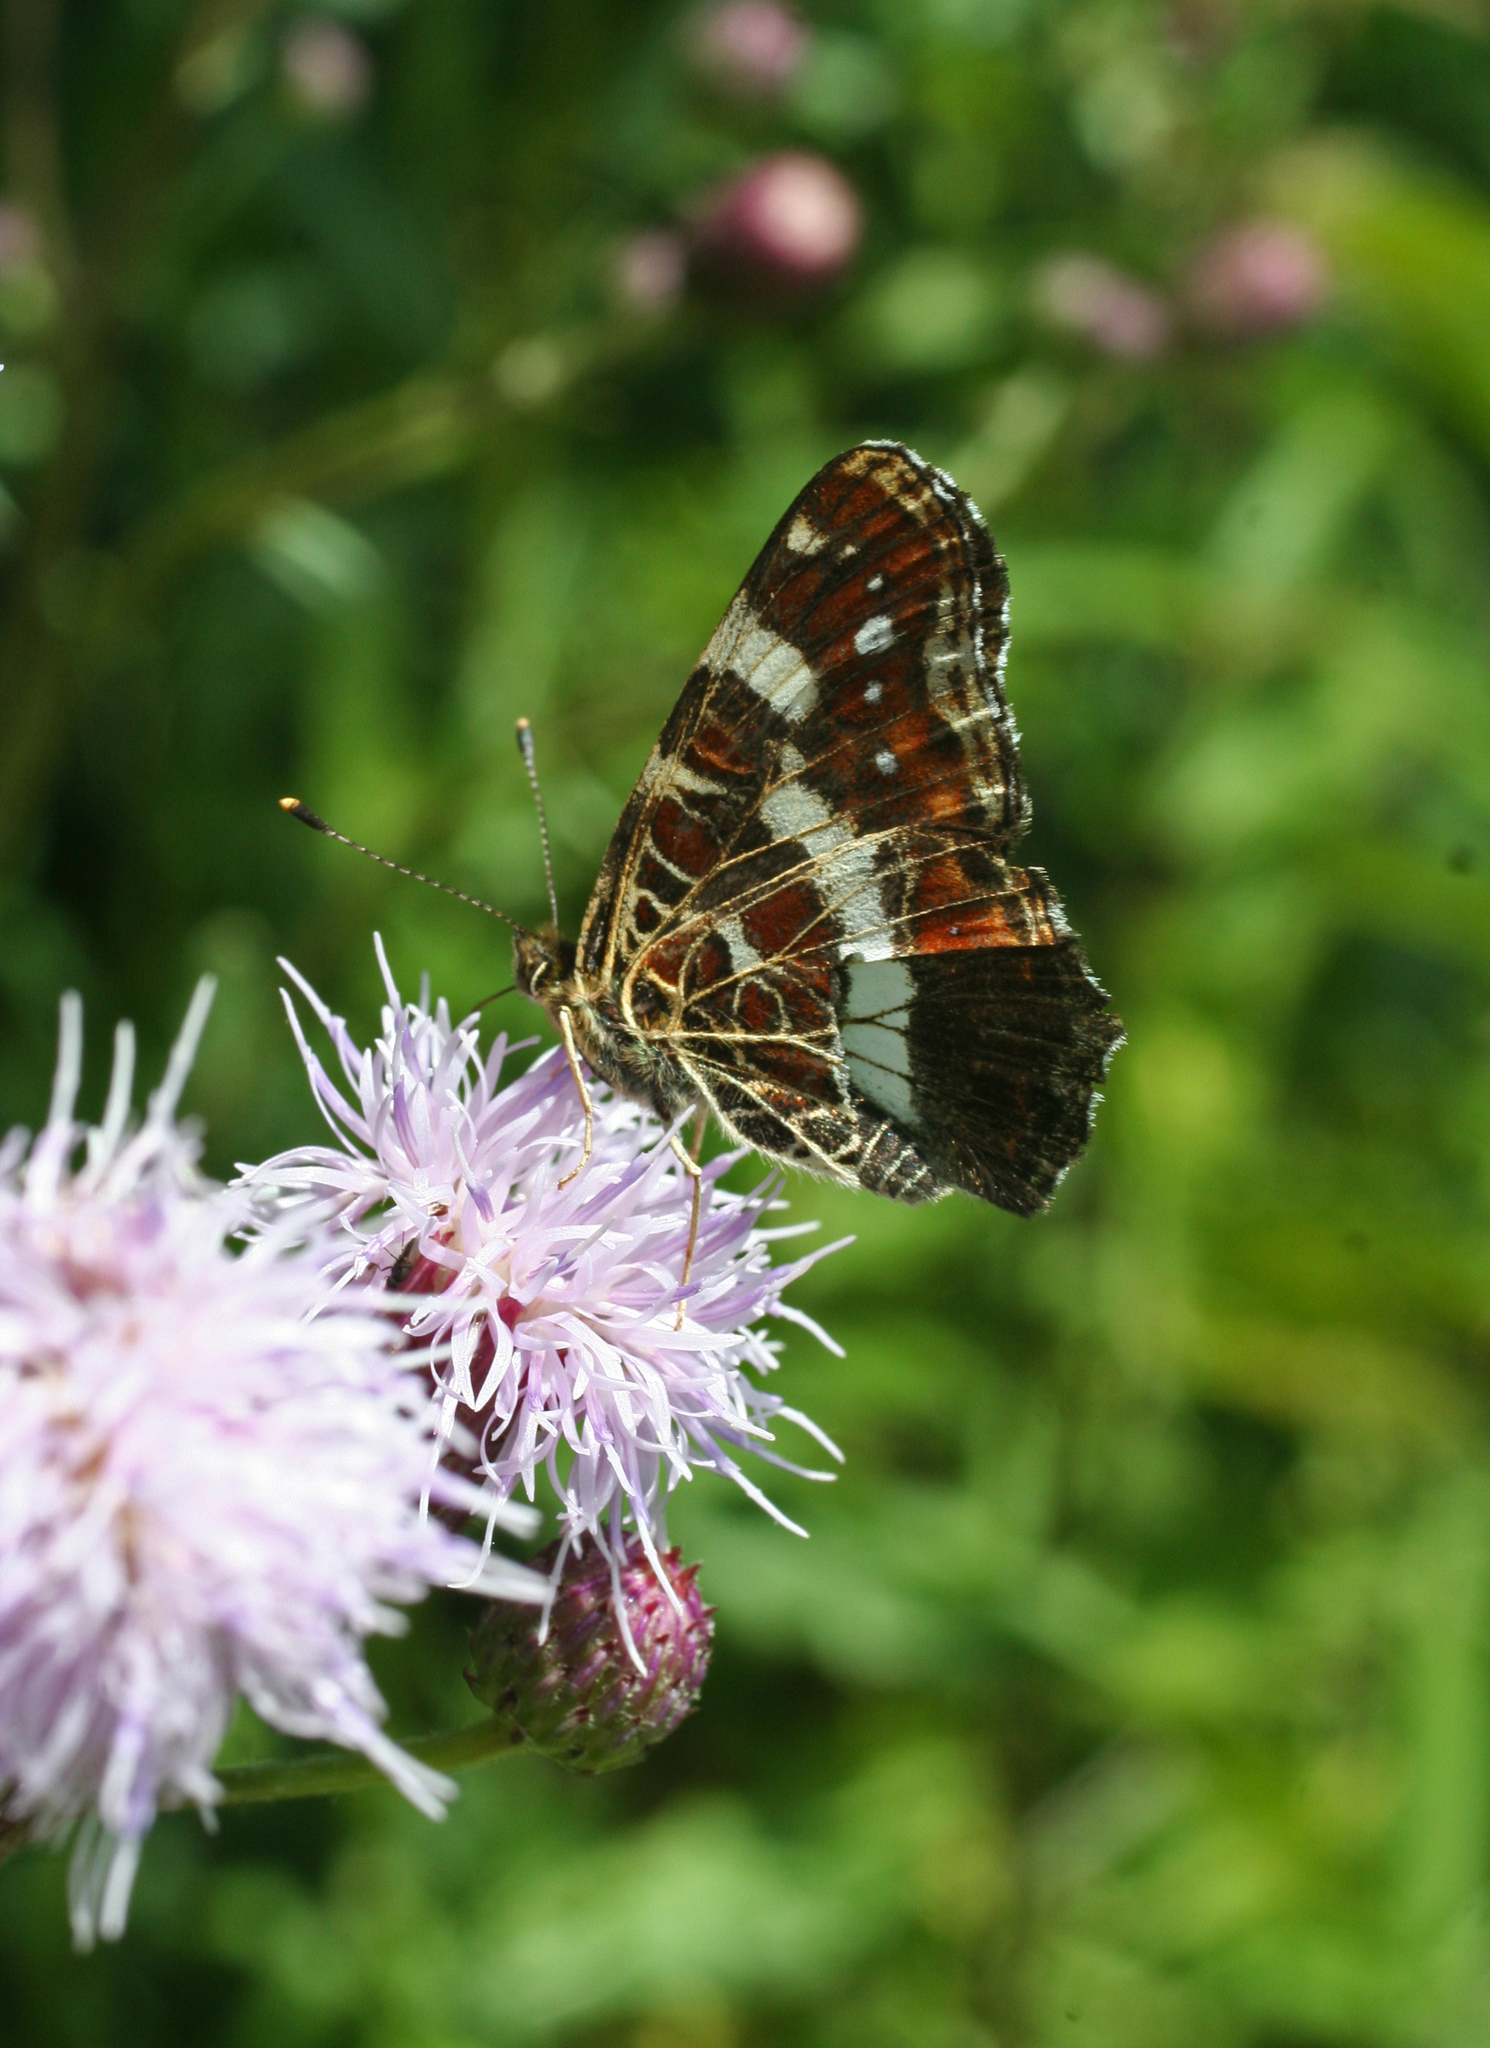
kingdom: Animalia
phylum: Arthropoda
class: Insecta
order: Lepidoptera
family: Nymphalidae
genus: Araschnia
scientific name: Araschnia levana
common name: Map butterfly
